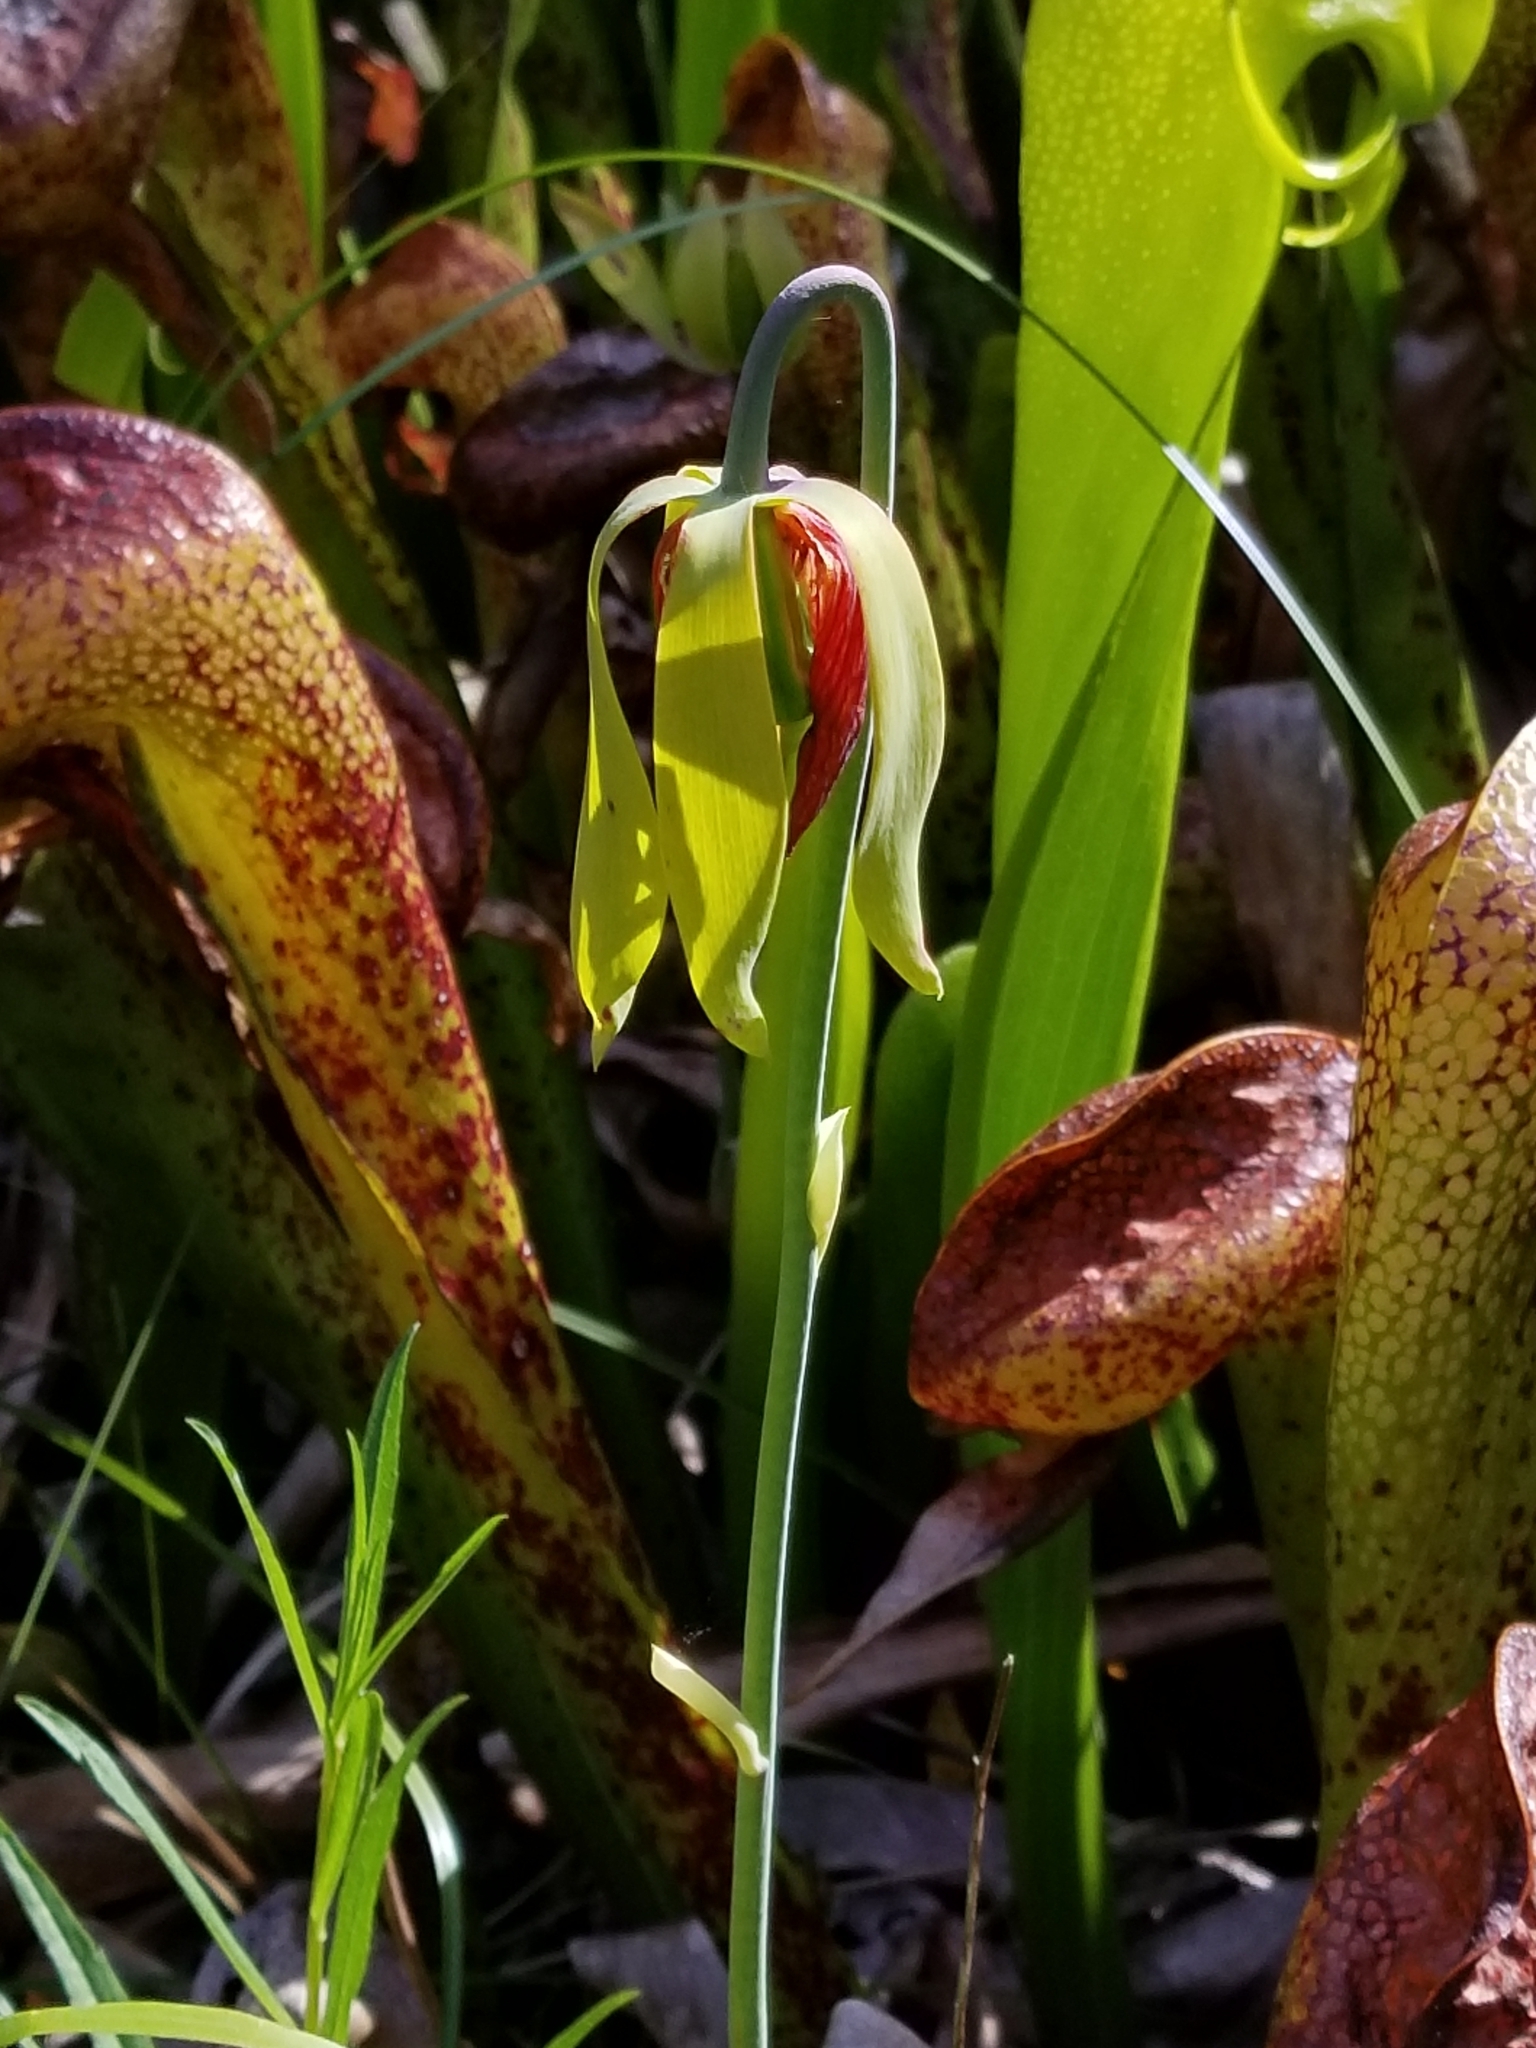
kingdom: Plantae
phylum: Tracheophyta
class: Magnoliopsida
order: Ericales
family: Sarraceniaceae
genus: Darlingtonia
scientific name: Darlingtonia californica
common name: California pitcher plant
